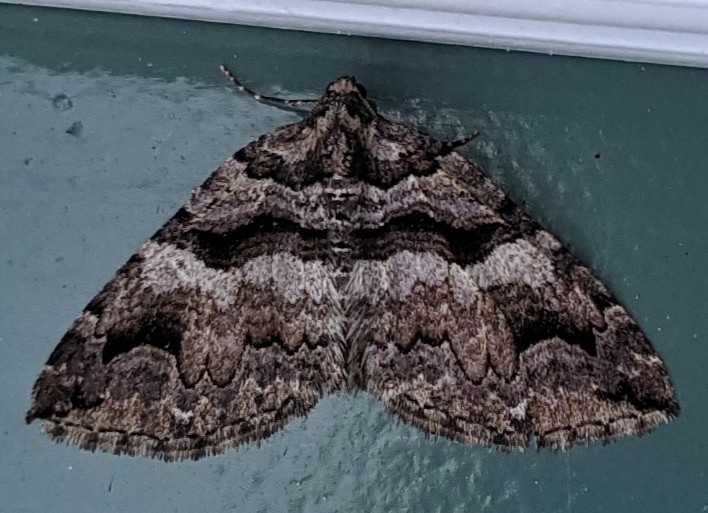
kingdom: Animalia
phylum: Arthropoda
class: Insecta
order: Lepidoptera
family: Geometridae
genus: Anticlea
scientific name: Anticlea vasiliata
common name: Variable carpet
